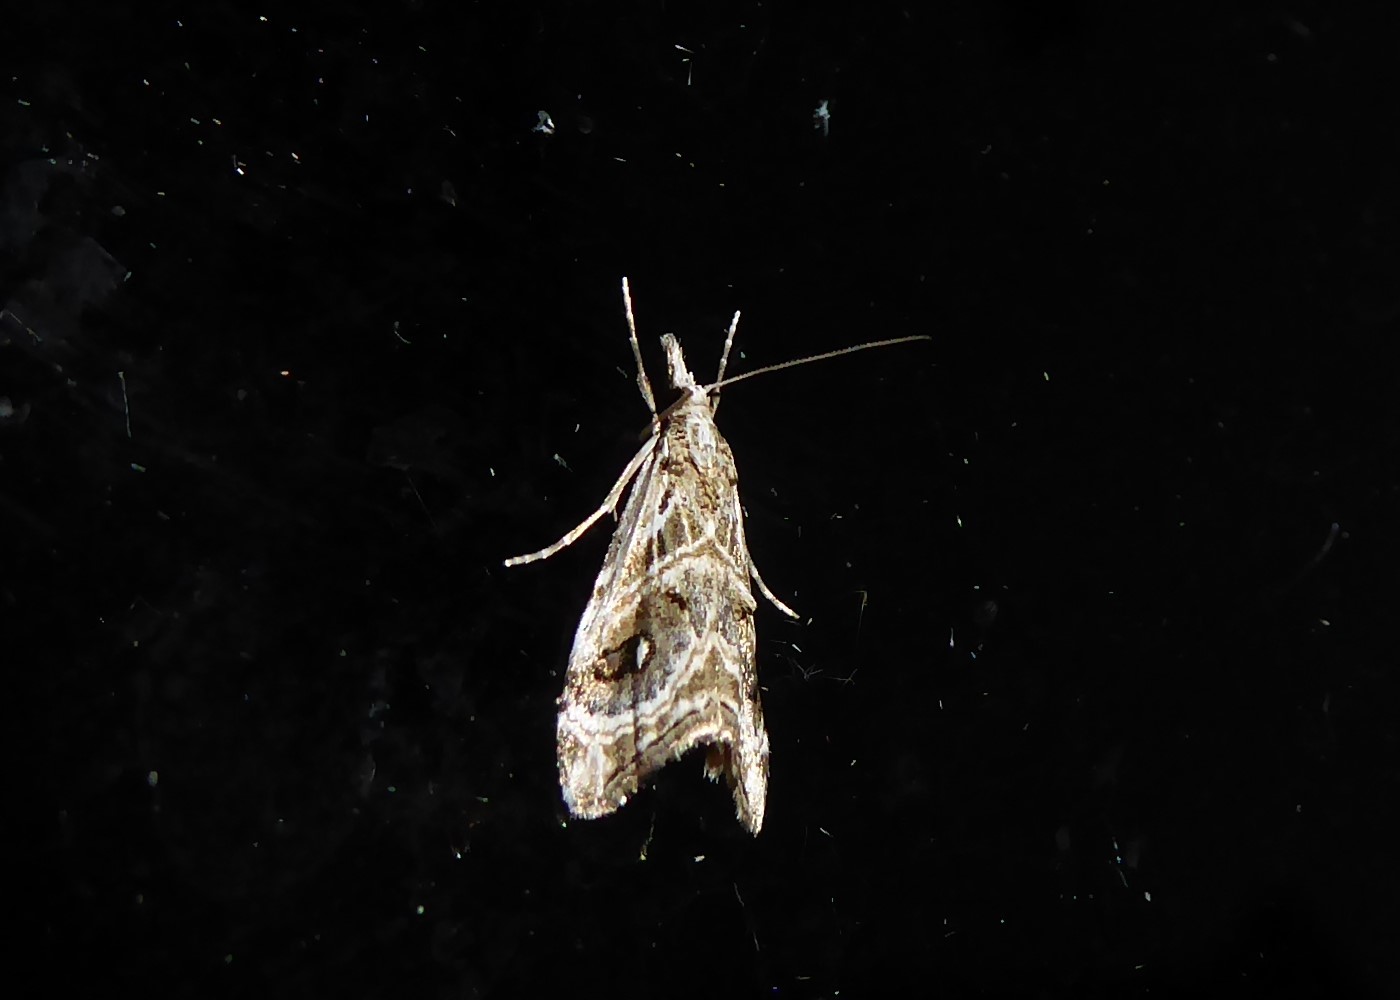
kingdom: Animalia
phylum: Arthropoda
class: Insecta
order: Lepidoptera
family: Crambidae
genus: Gadira
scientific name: Gadira acerella
